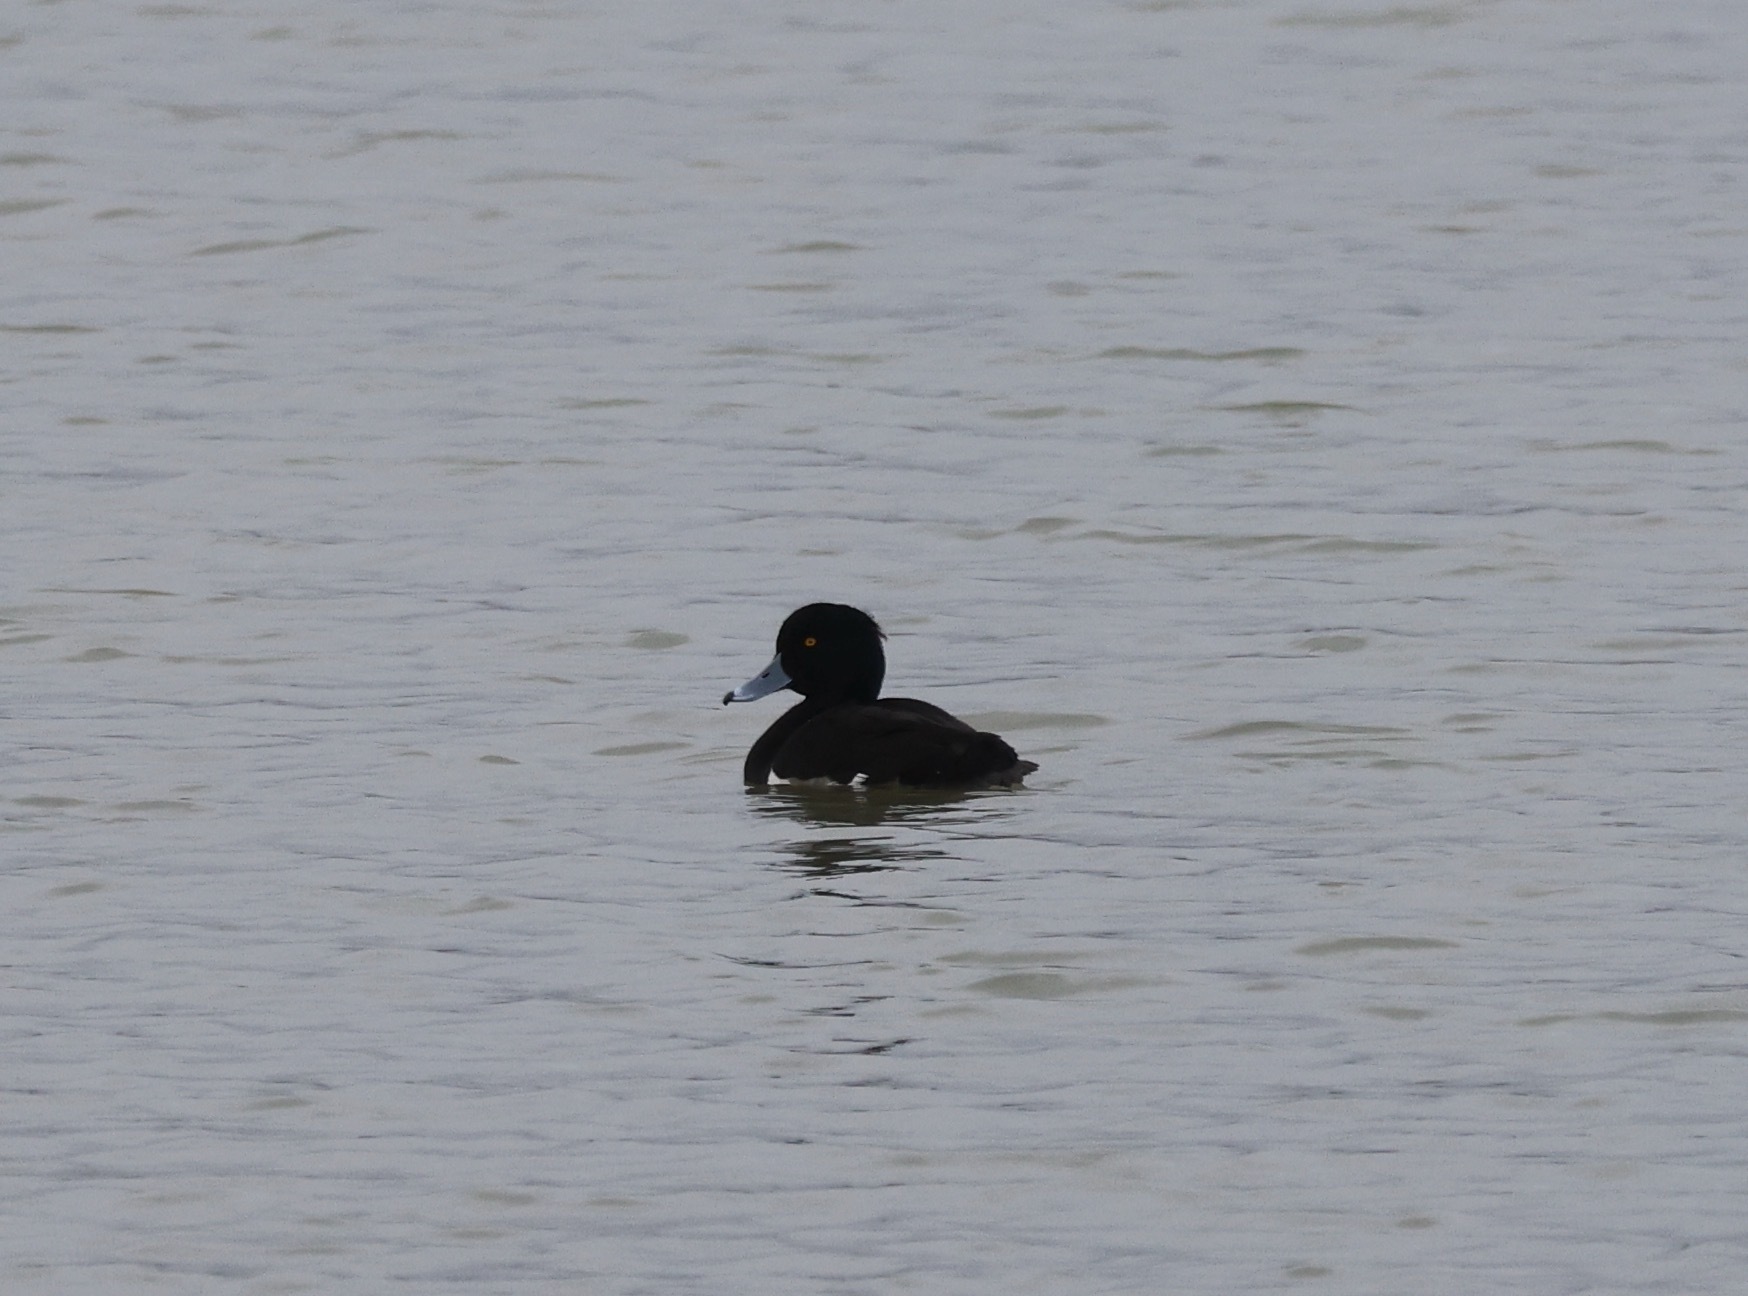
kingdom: Animalia
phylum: Chordata
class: Aves
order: Anseriformes
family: Anatidae
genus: Aythya
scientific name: Aythya fuligula
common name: Tufted duck
